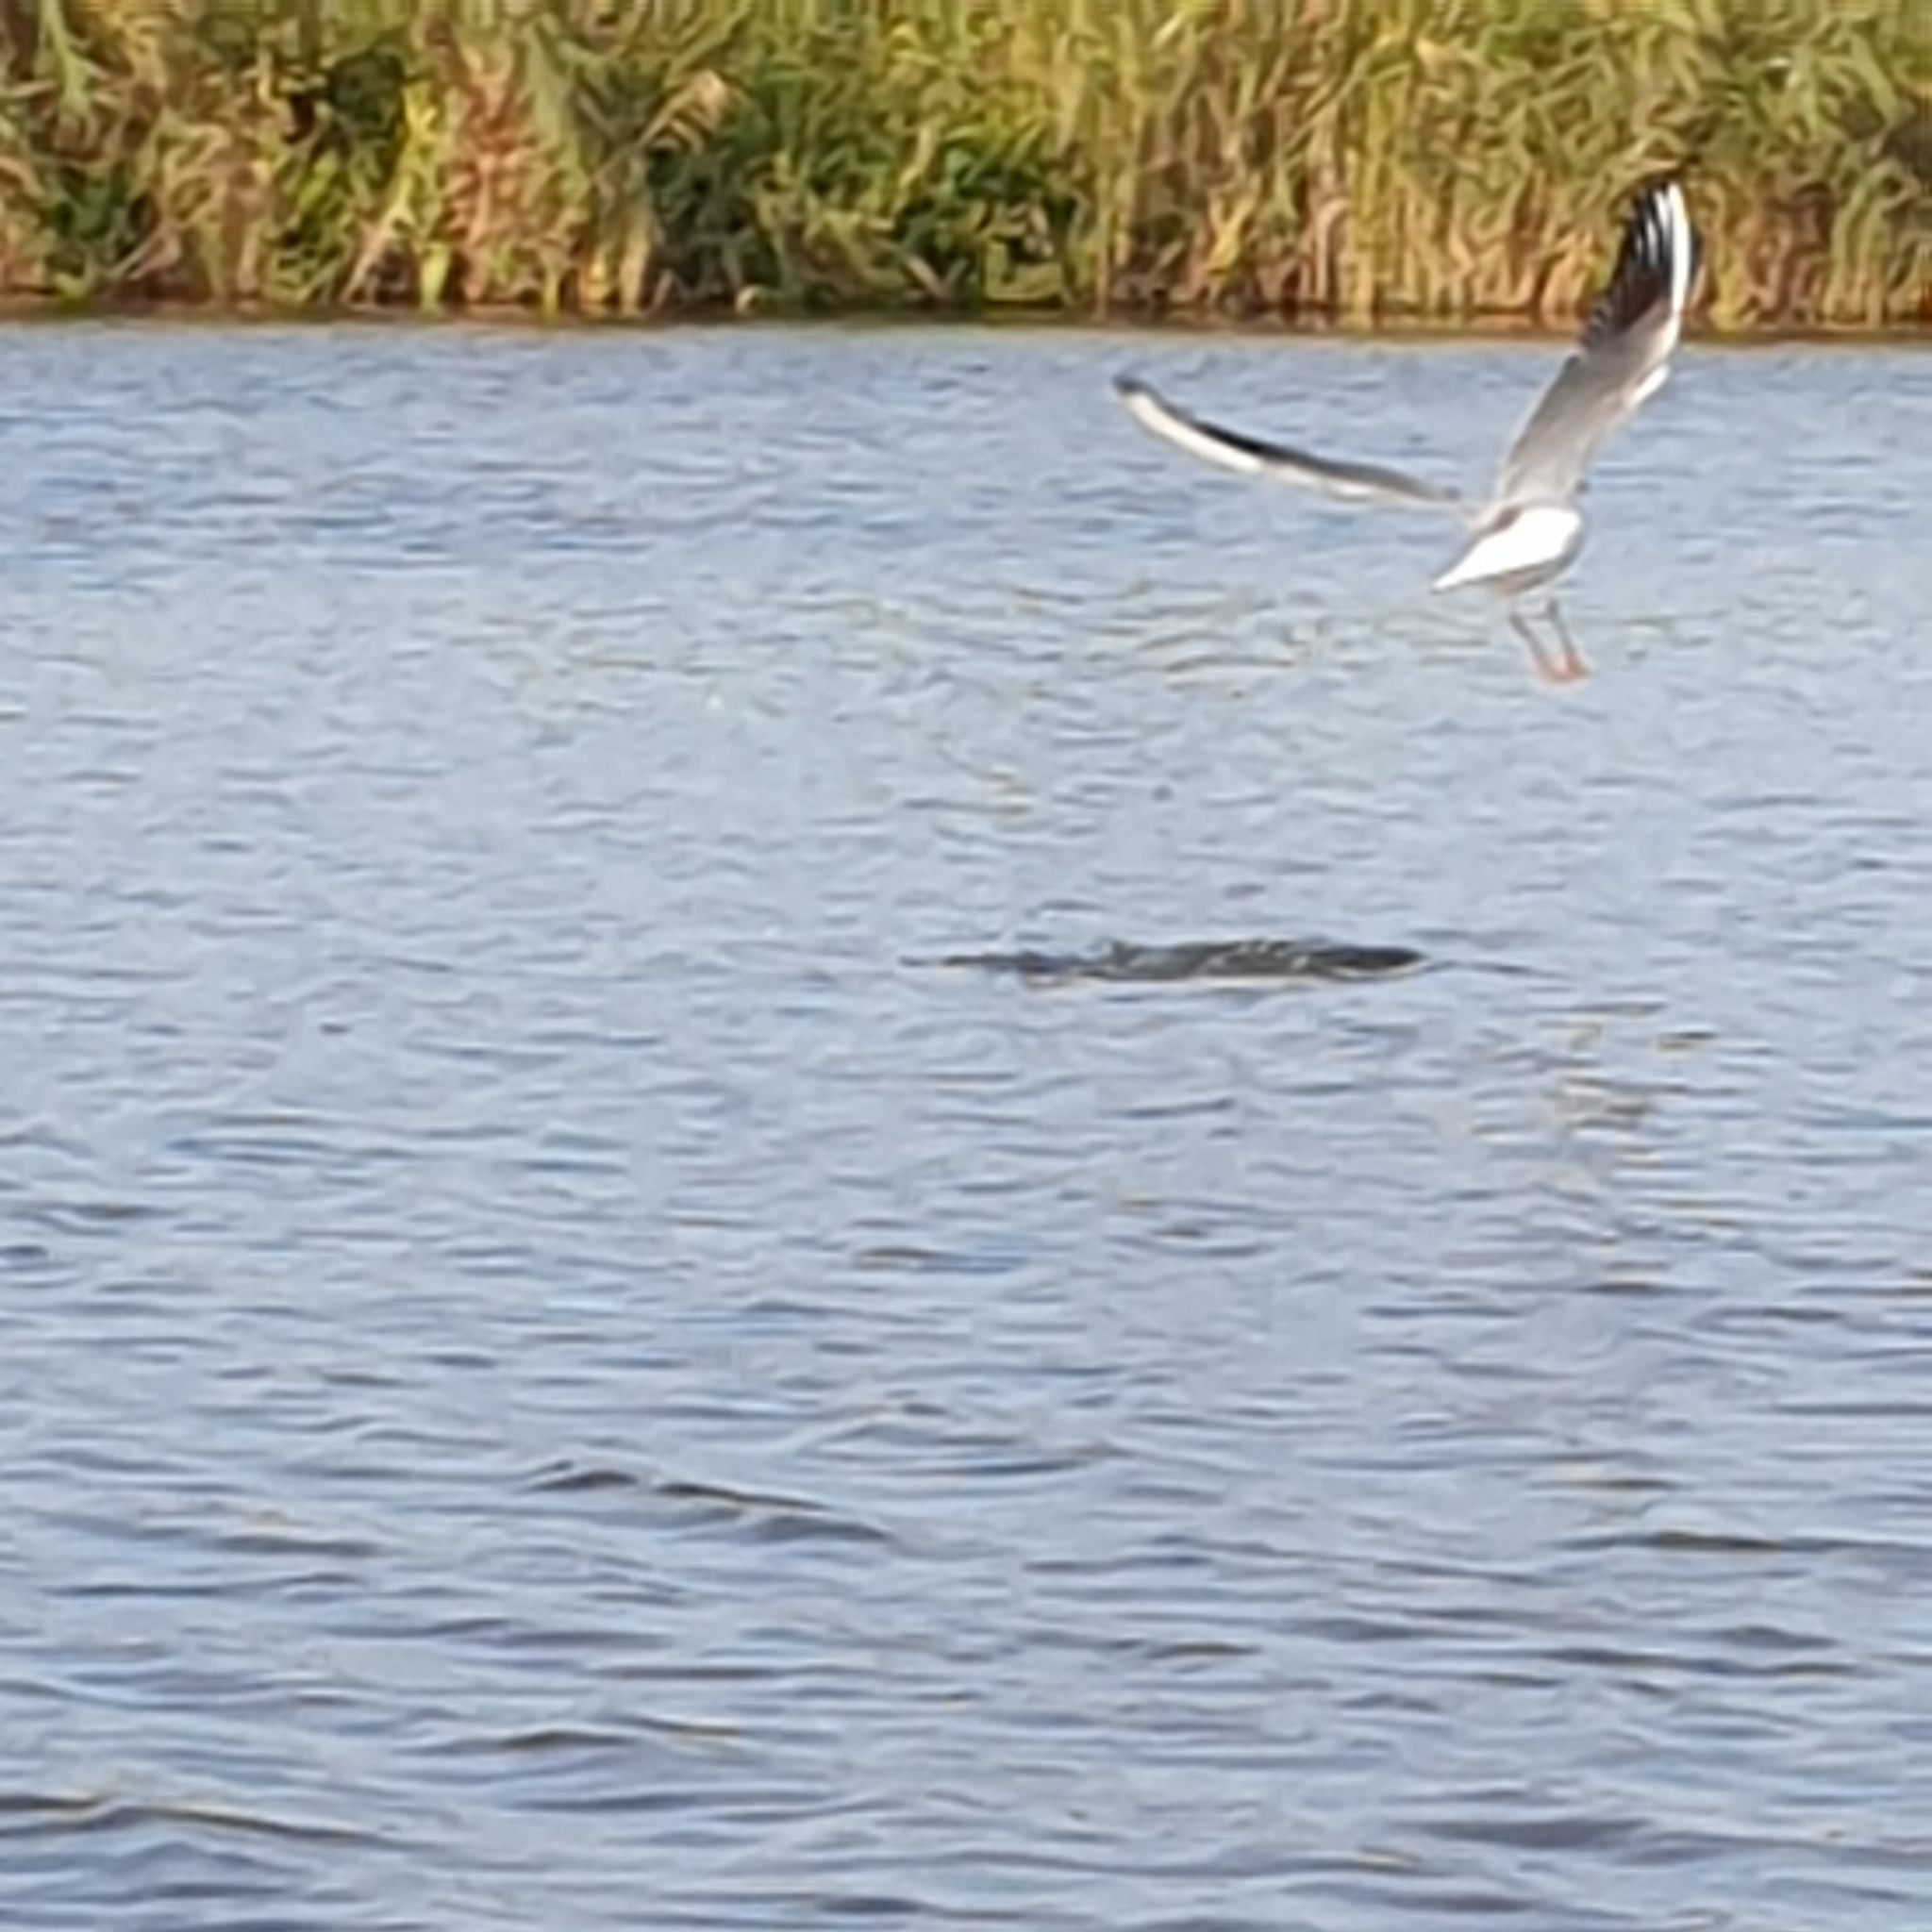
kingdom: Animalia
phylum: Chordata
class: Aves
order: Charadriiformes
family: Laridae
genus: Chroicocephalus
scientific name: Chroicocephalus ridibundus
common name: Black-headed gull
